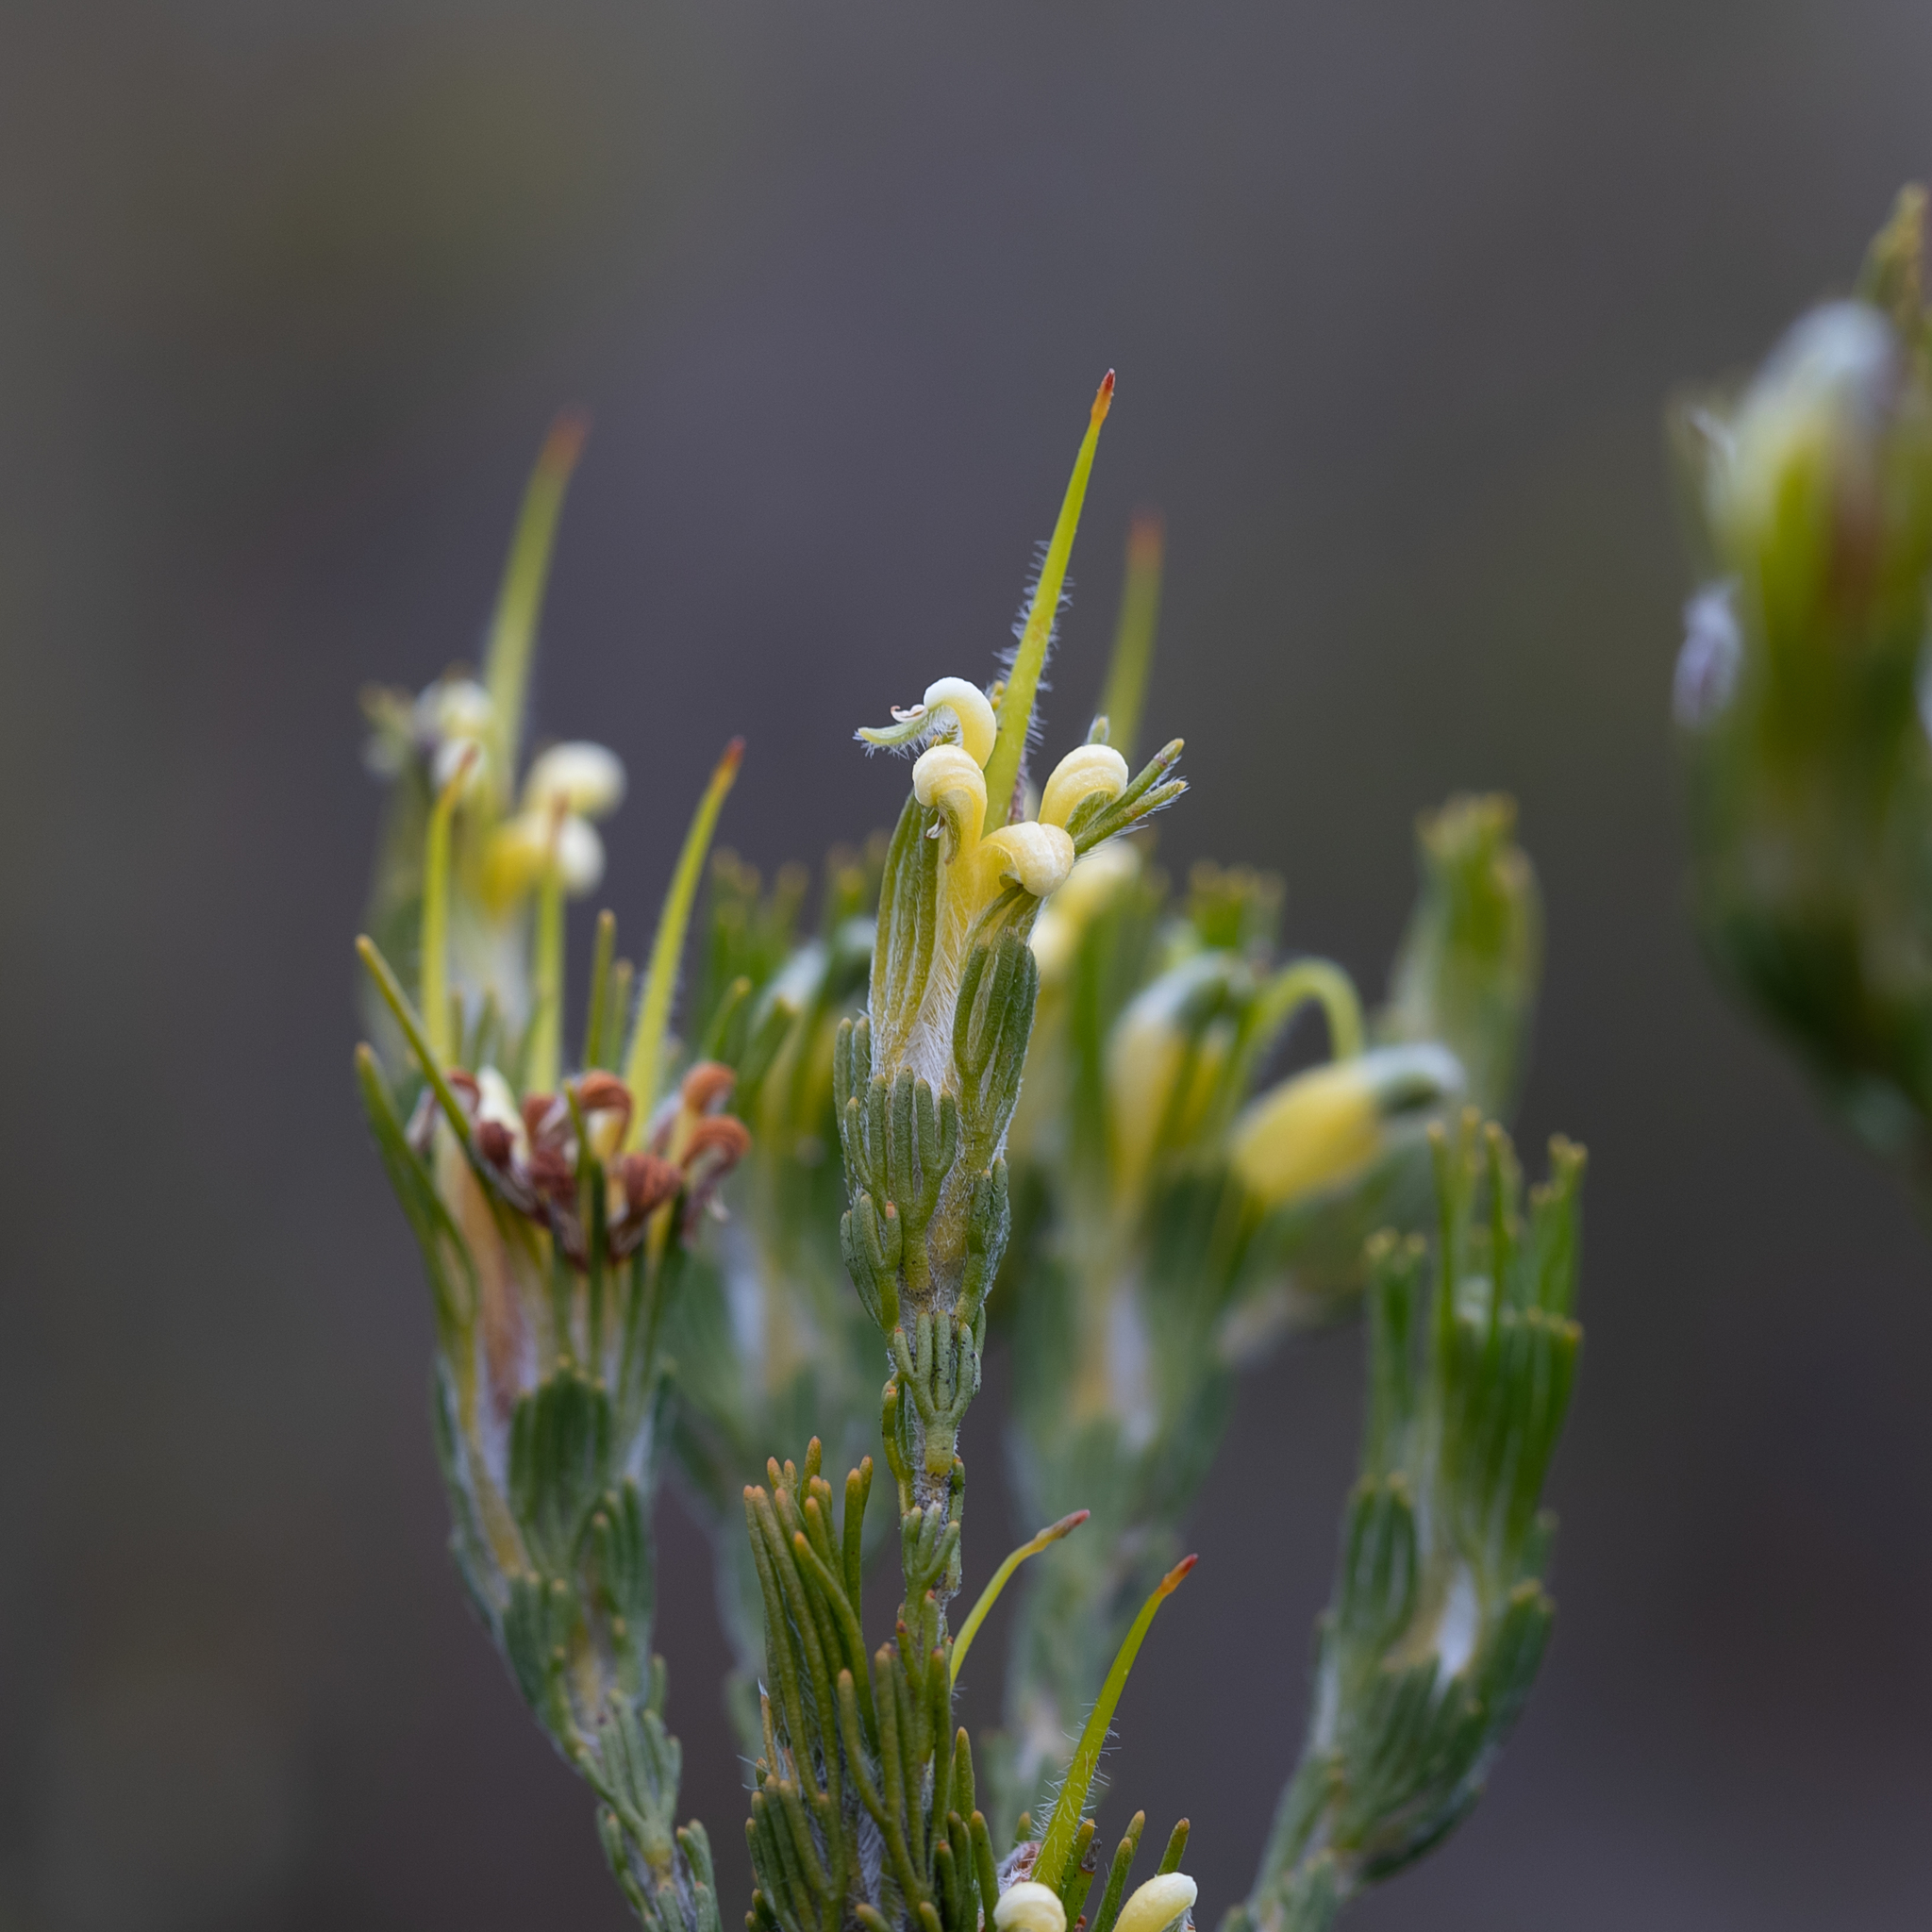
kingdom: Plantae
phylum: Tracheophyta
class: Magnoliopsida
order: Proteales
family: Proteaceae
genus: Adenanthos
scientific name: Adenanthos terminalis
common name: Yellow gland-flower
